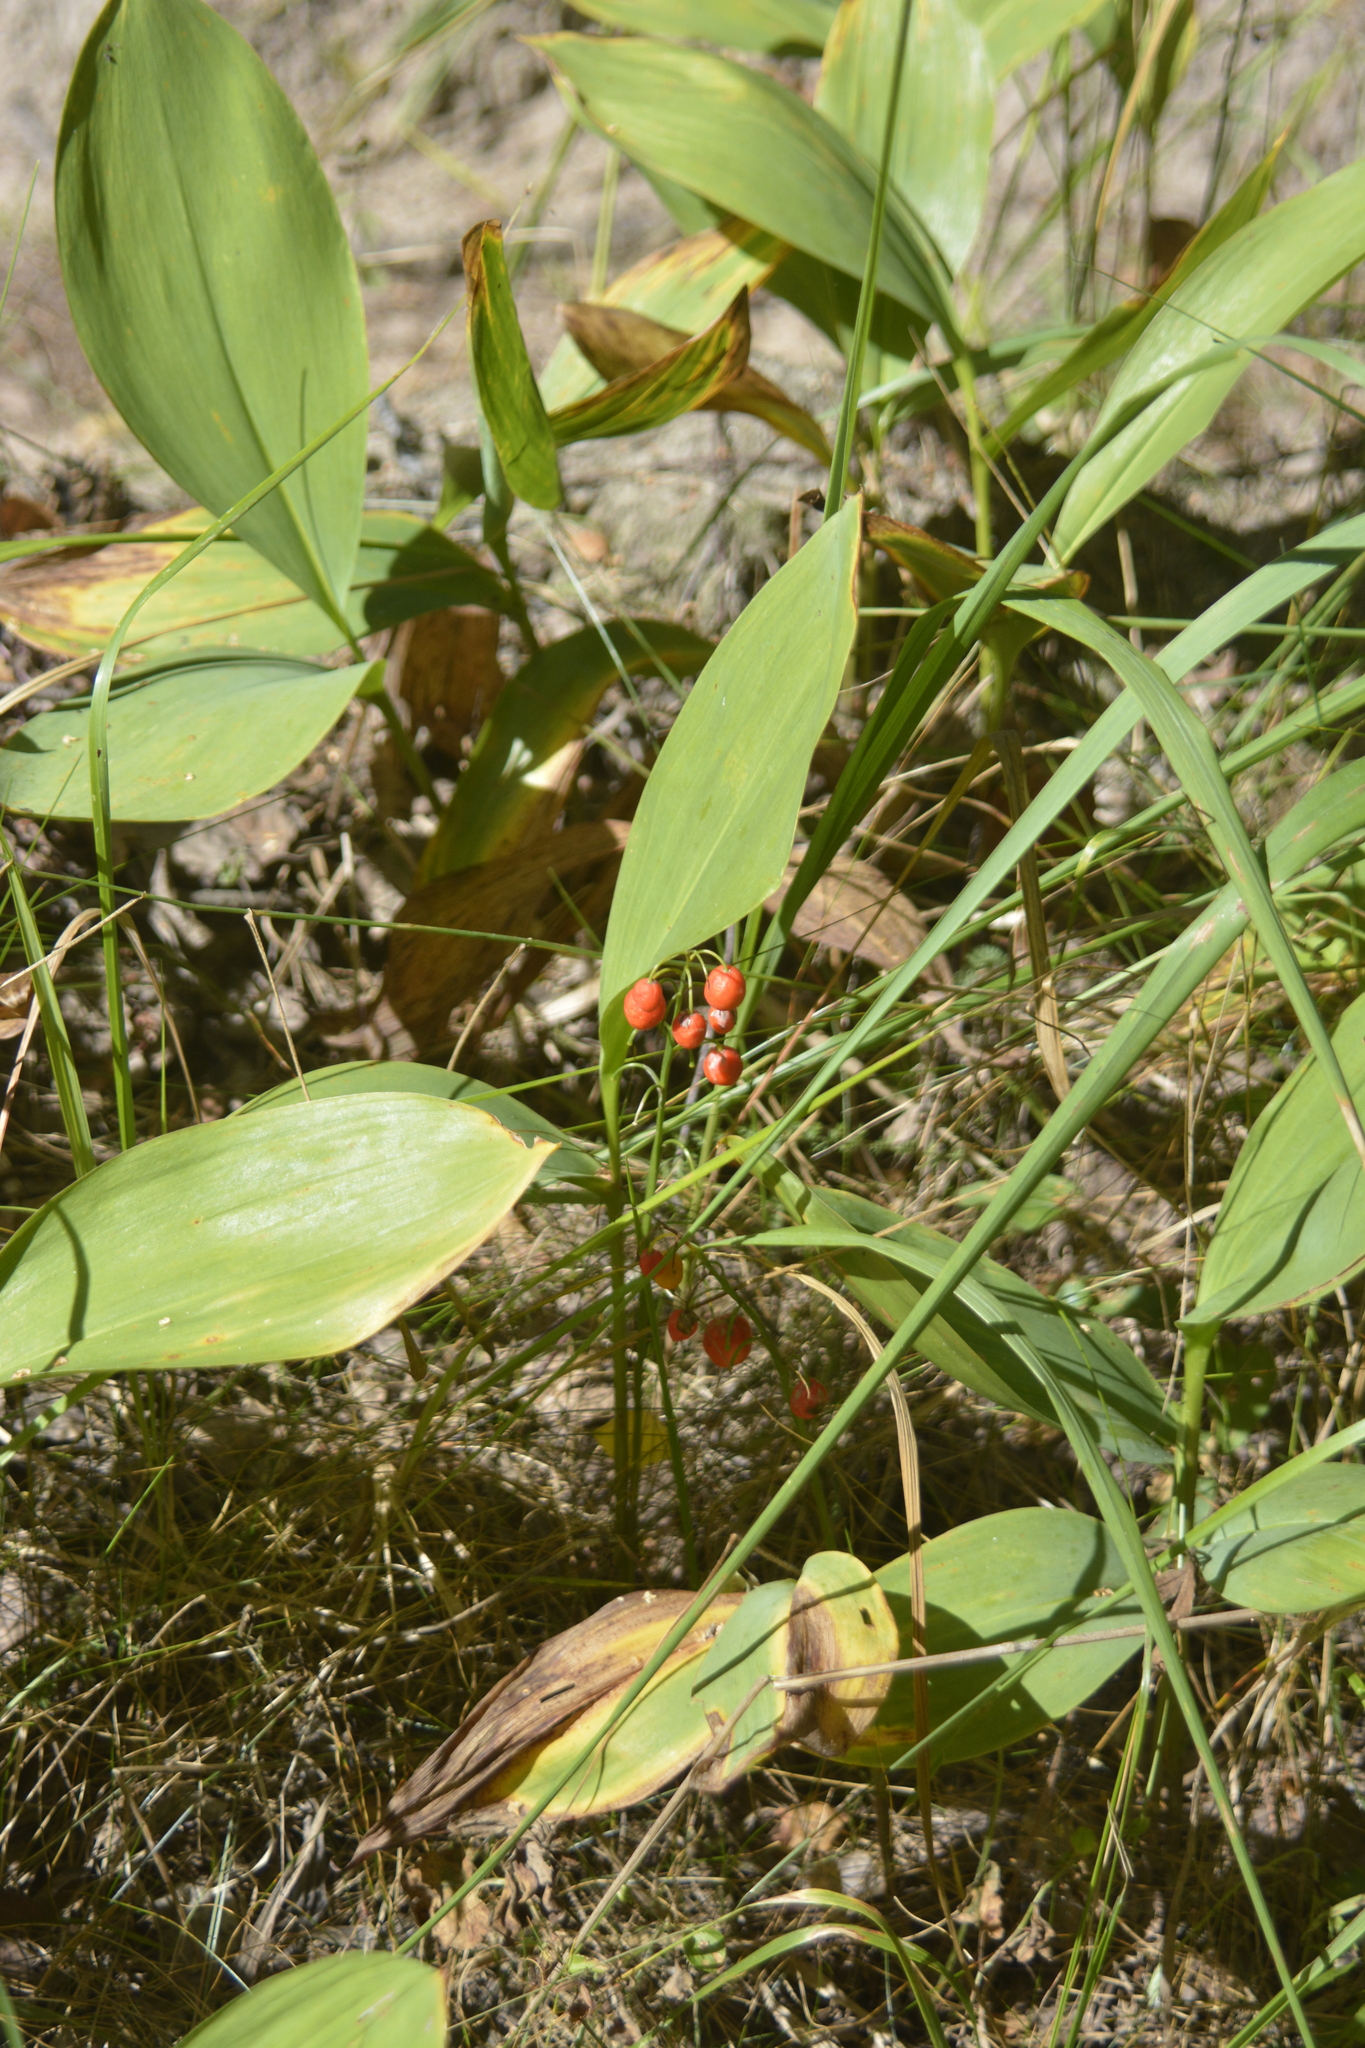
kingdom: Plantae
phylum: Tracheophyta
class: Liliopsida
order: Asparagales
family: Asparagaceae
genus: Convallaria
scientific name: Convallaria majalis
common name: Lily-of-the-valley
